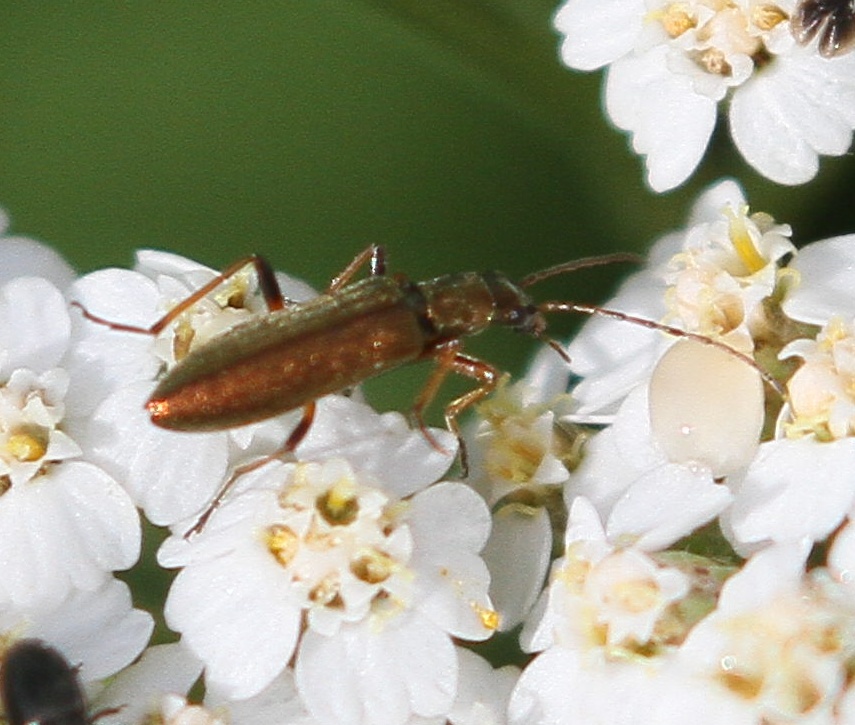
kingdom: Animalia
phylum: Arthropoda
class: Insecta
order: Coleoptera
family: Oedemeridae
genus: Chrysanthia
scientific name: Chrysanthia geniculata
